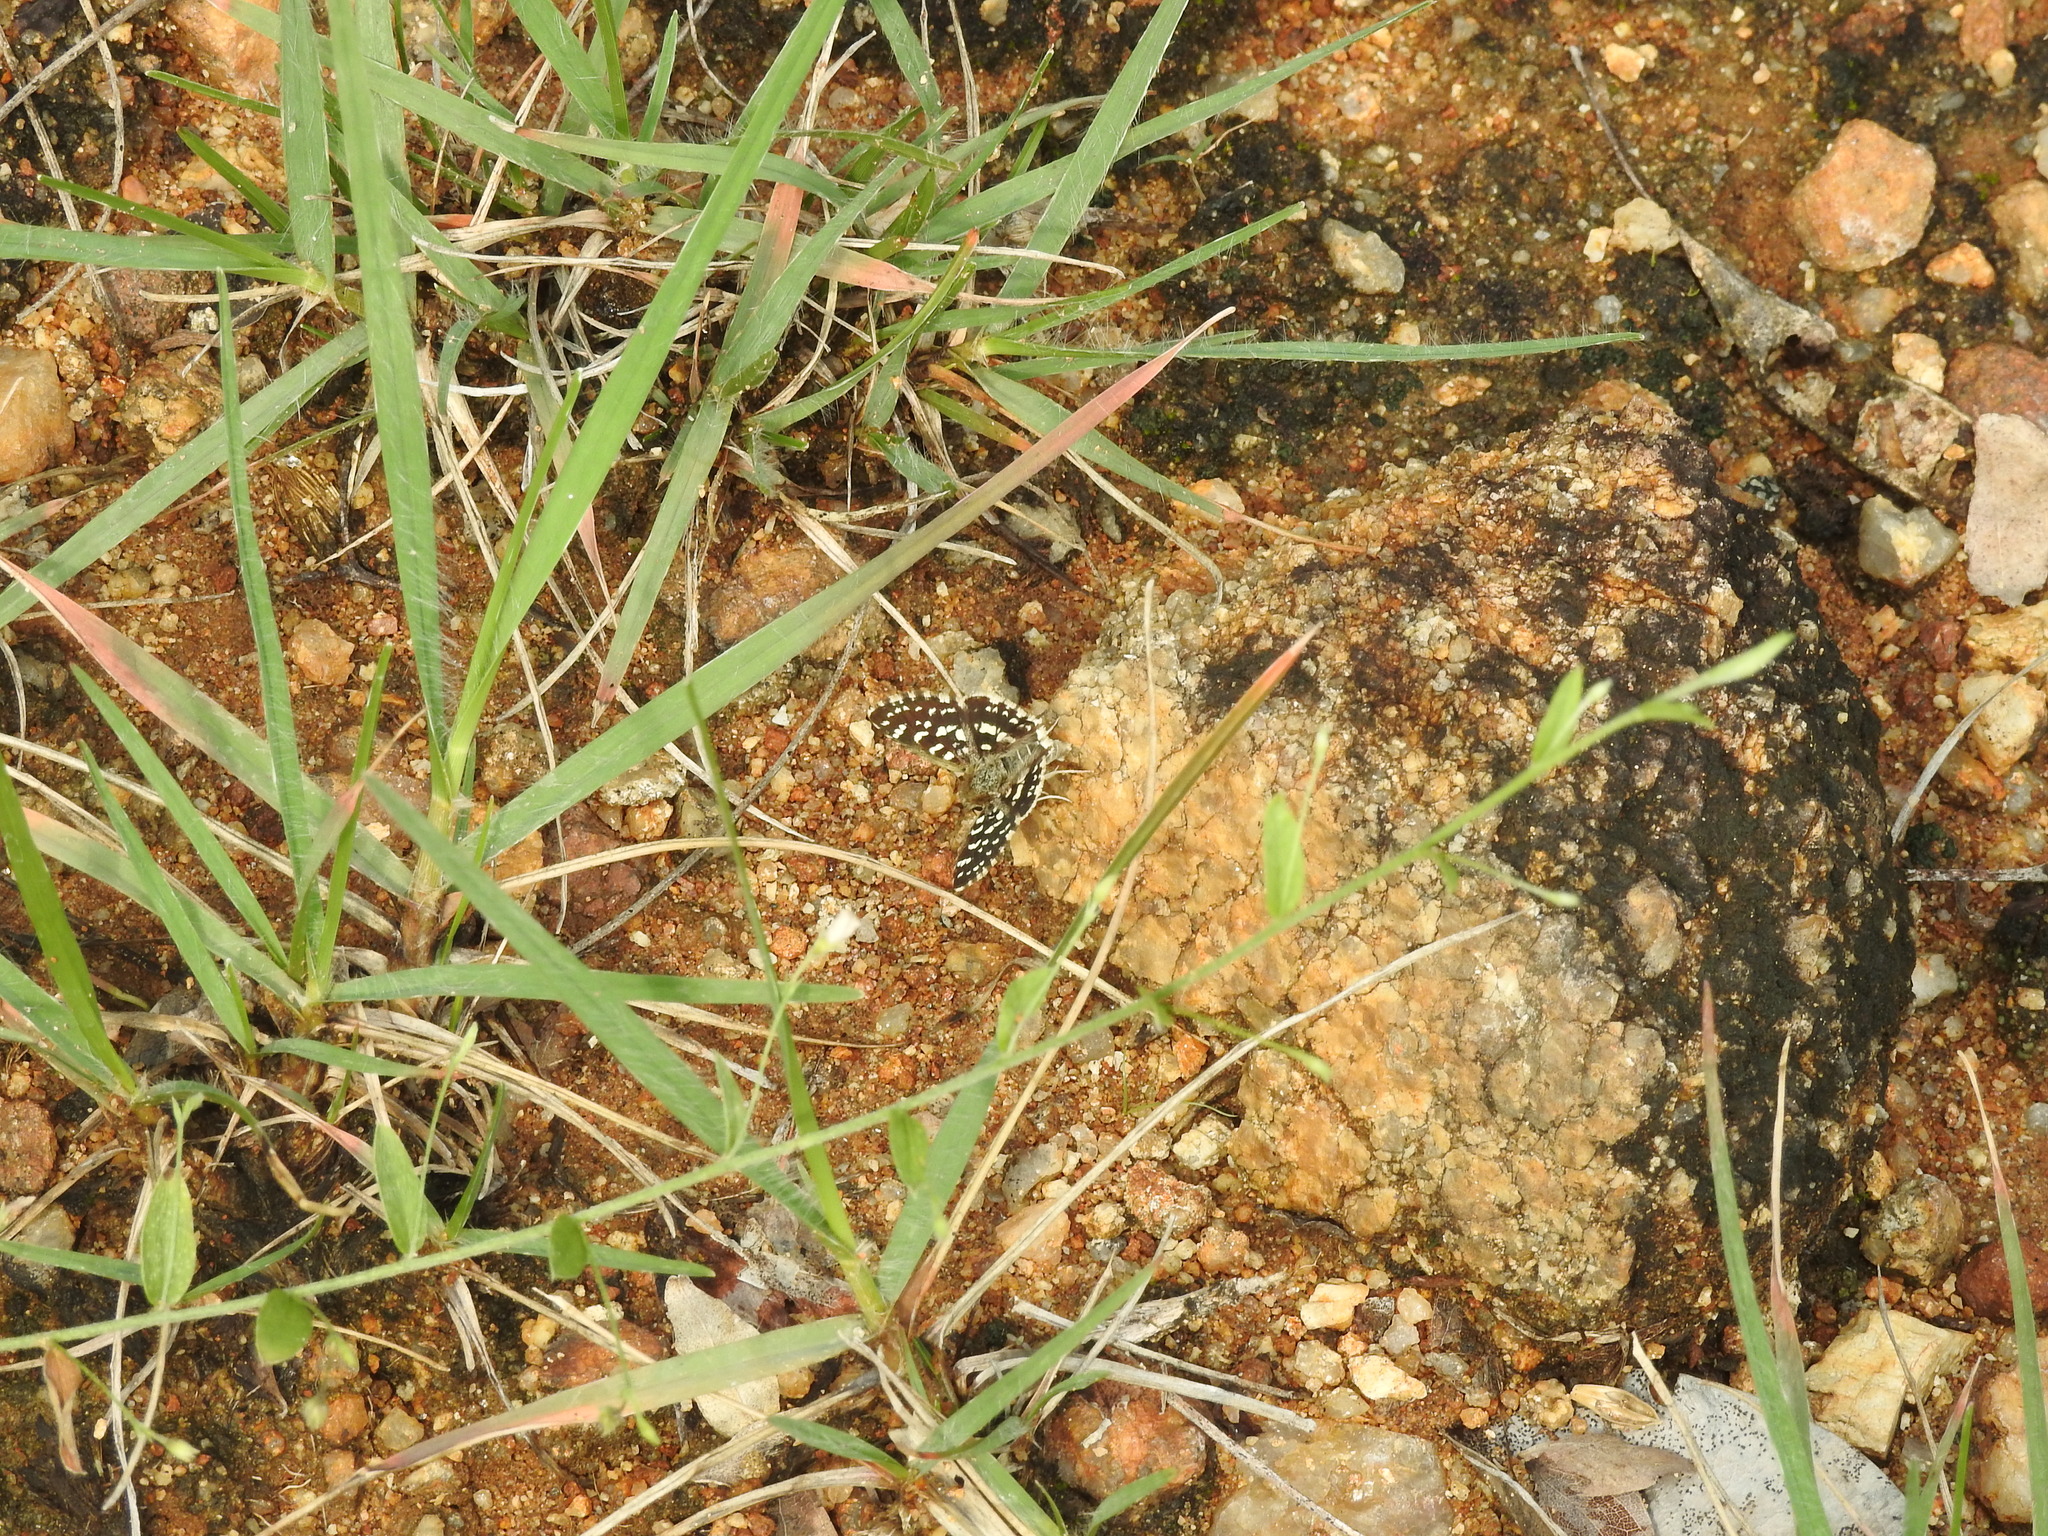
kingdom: Animalia
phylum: Arthropoda
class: Insecta
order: Lepidoptera
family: Hesperiidae
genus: Spialia
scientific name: Spialia galba
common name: Indian skipper
